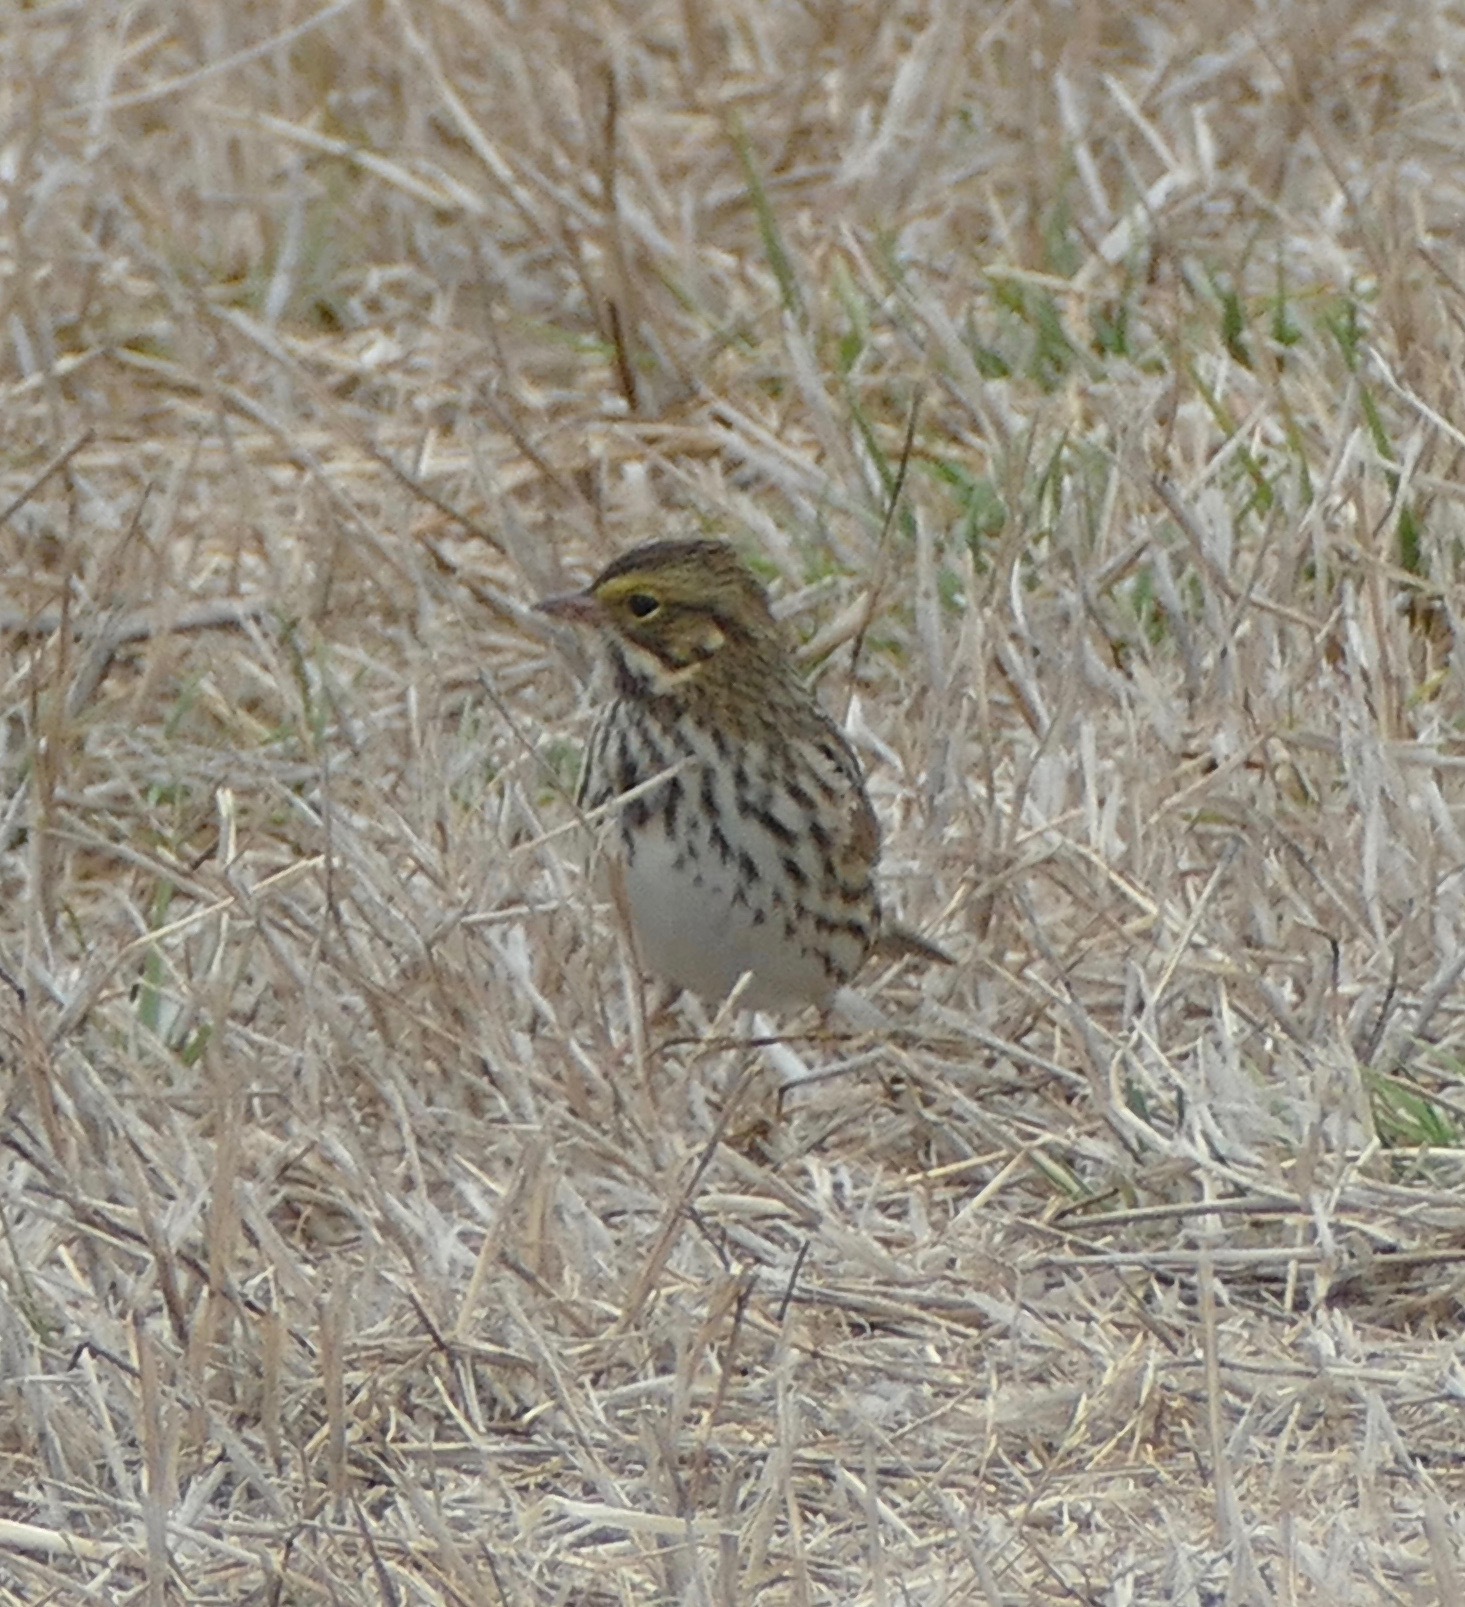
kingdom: Animalia
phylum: Chordata
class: Aves
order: Passeriformes
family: Passerellidae
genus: Passerculus
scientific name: Passerculus sandwichensis
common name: Savannah sparrow
